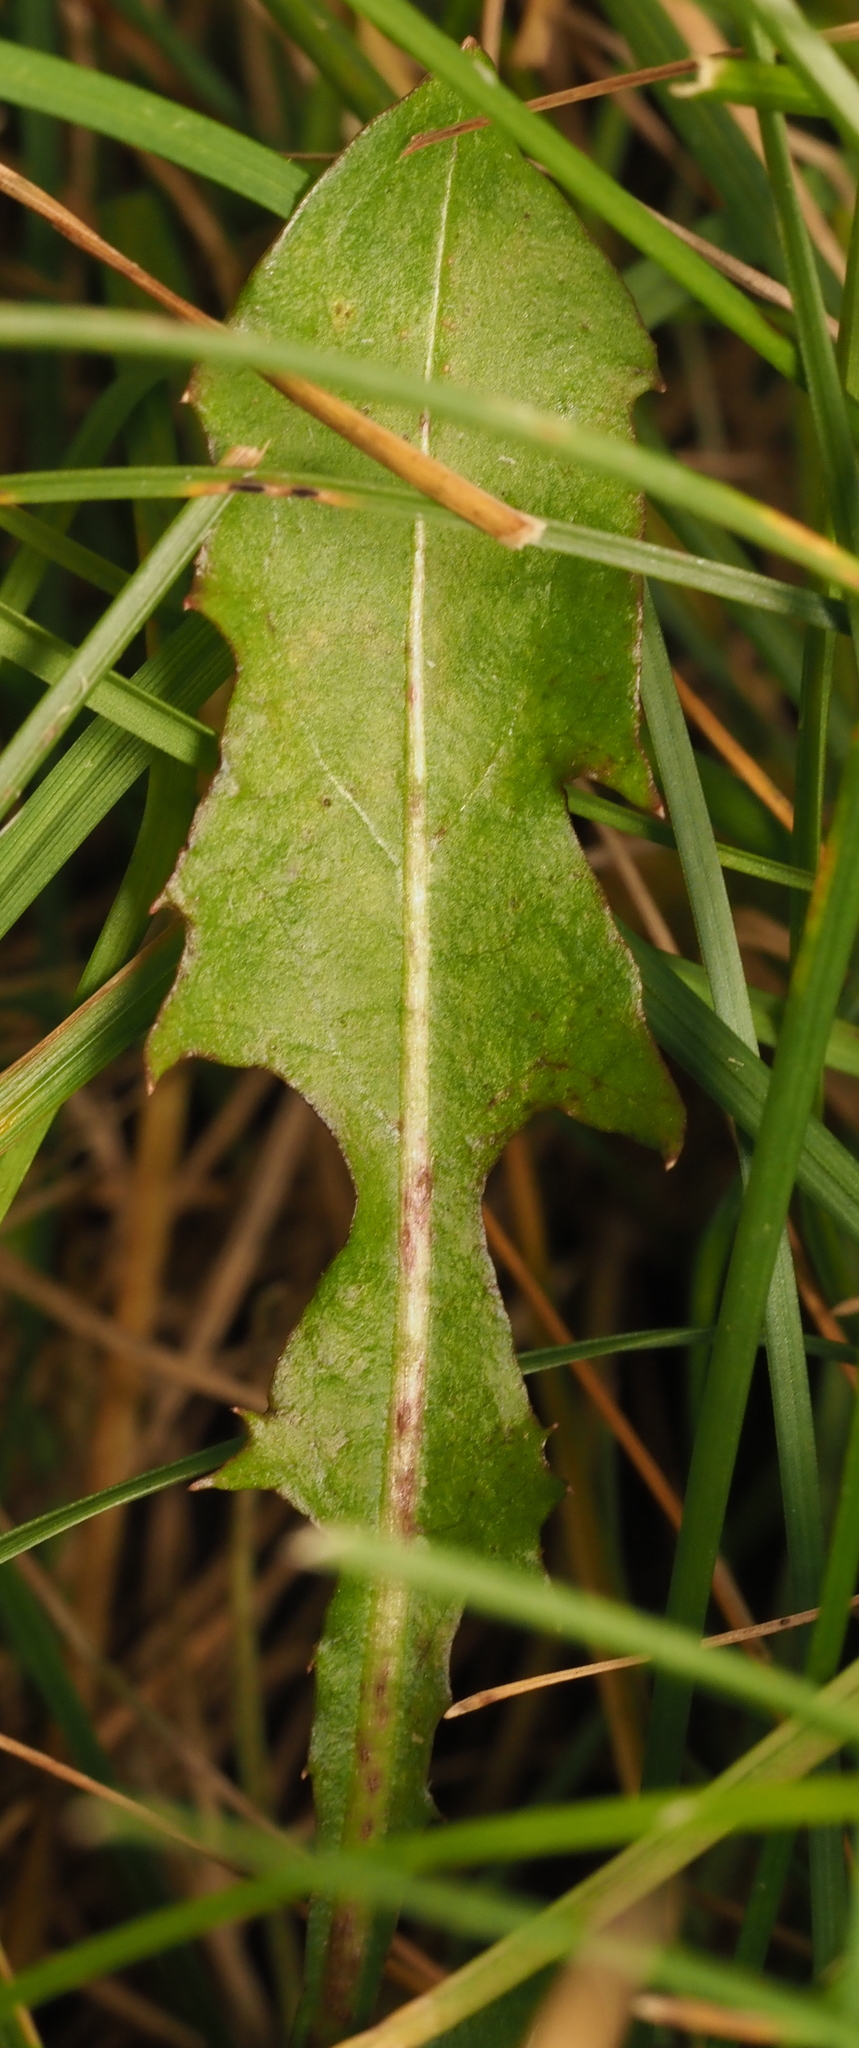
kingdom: Plantae
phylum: Tracheophyta
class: Magnoliopsida
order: Asterales
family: Asteraceae
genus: Taraxacum
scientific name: Taraxacum officinale
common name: Common dandelion
